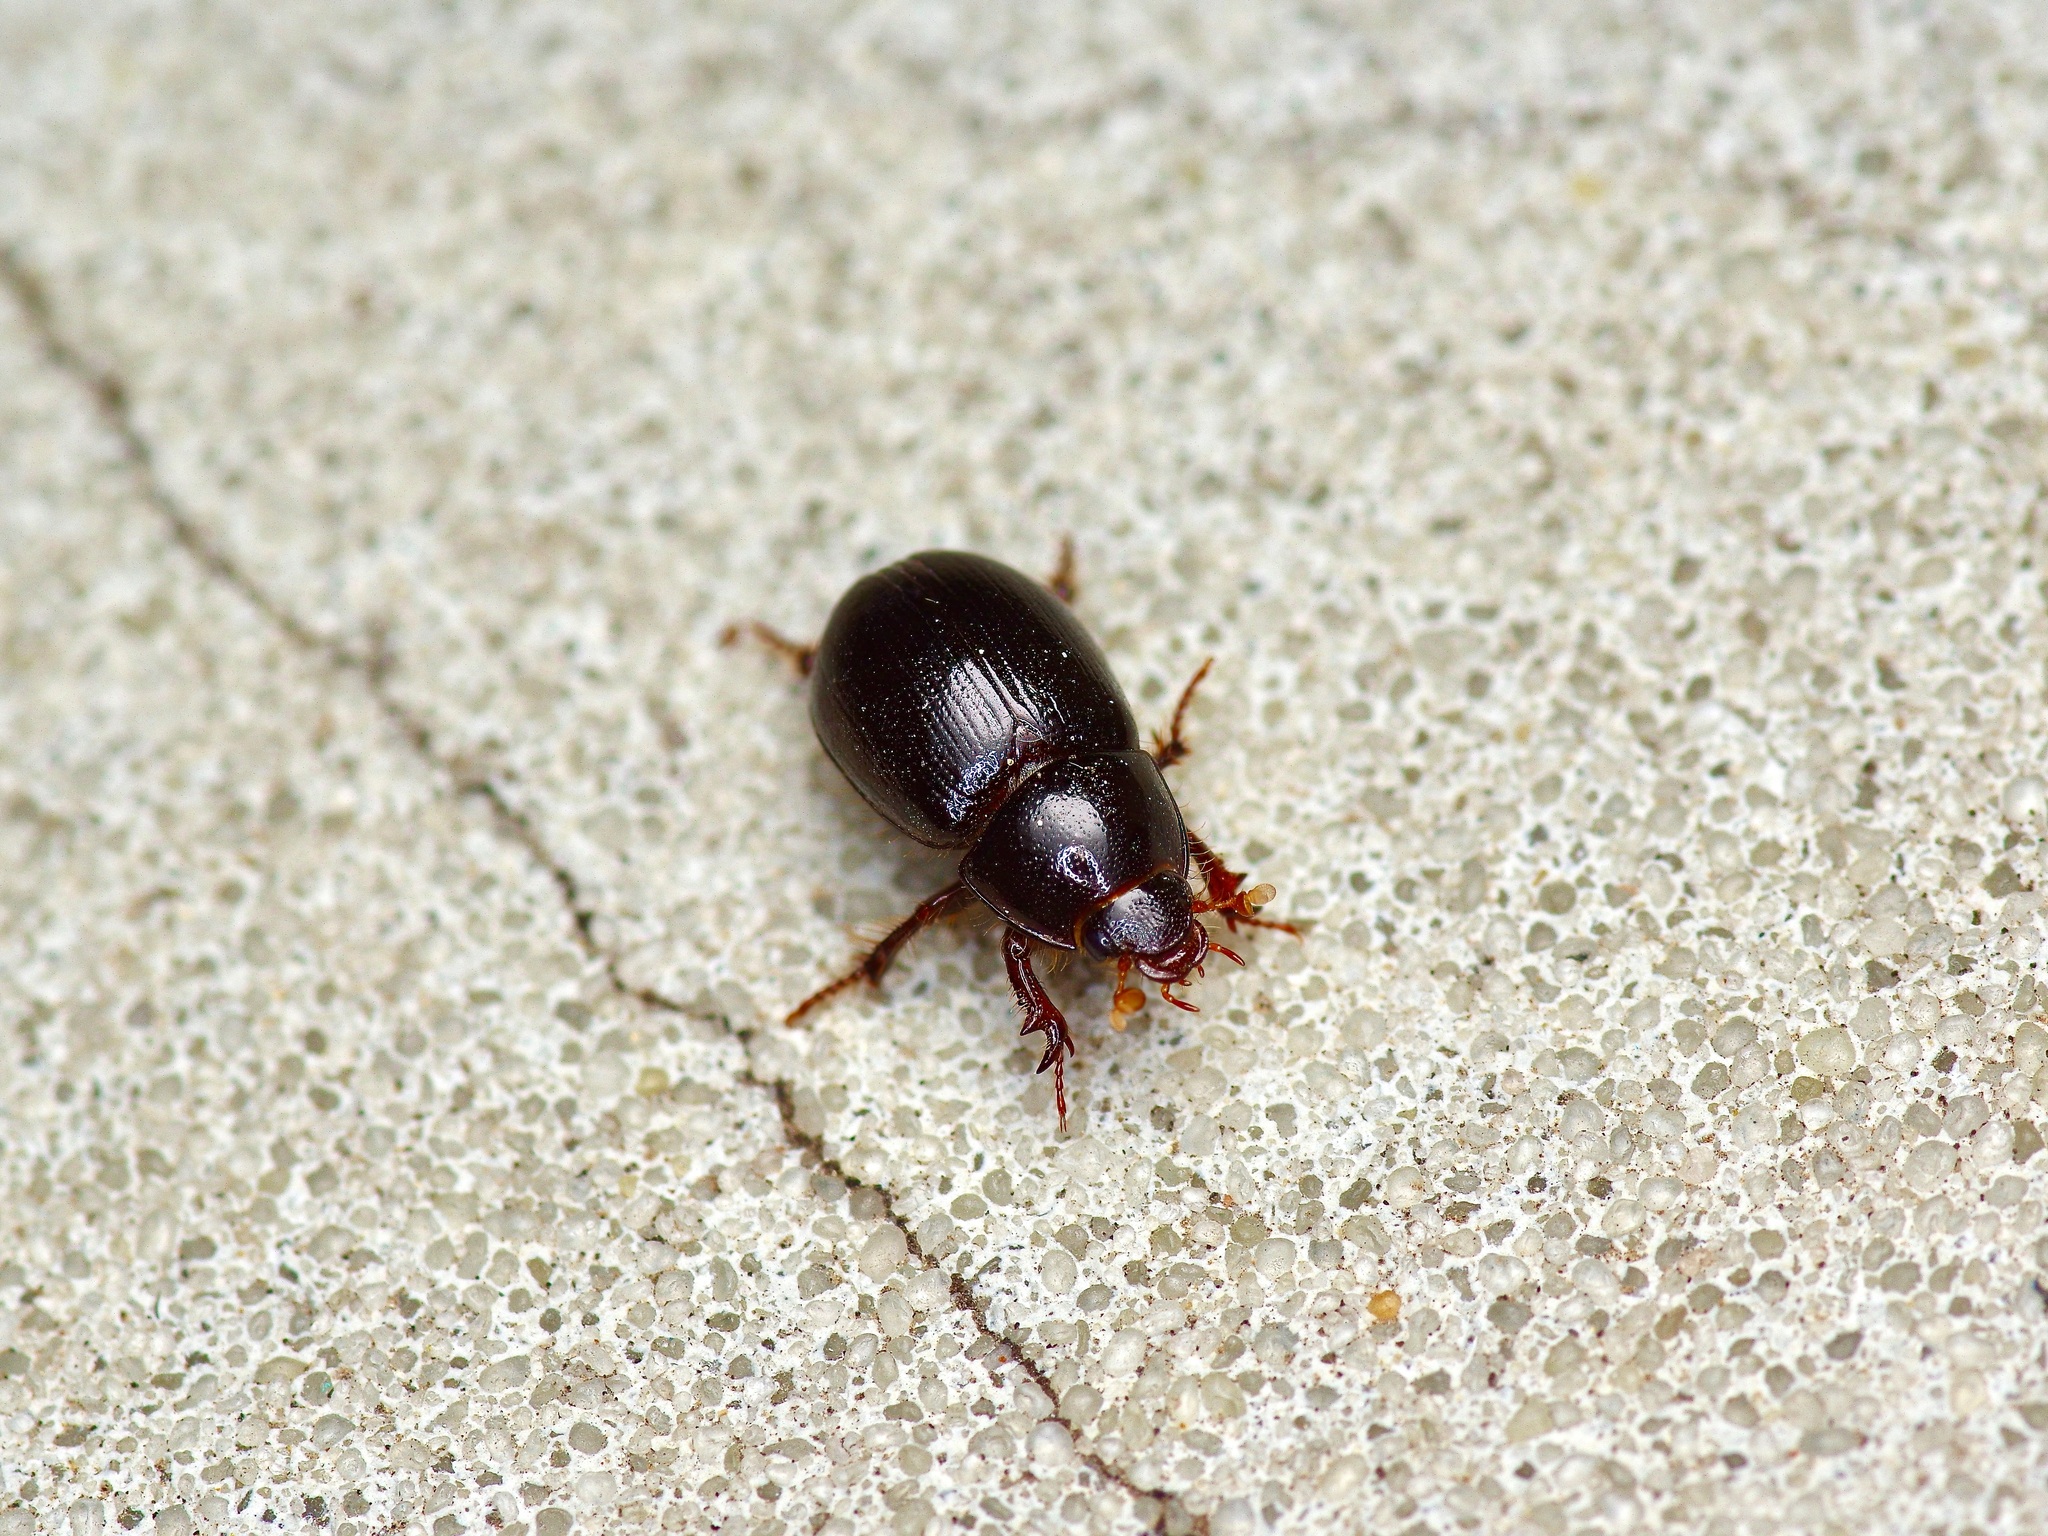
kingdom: Animalia
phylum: Arthropoda
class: Insecta
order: Coleoptera
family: Hybosoridae
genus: Hybosorus
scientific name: Hybosorus illigeri
